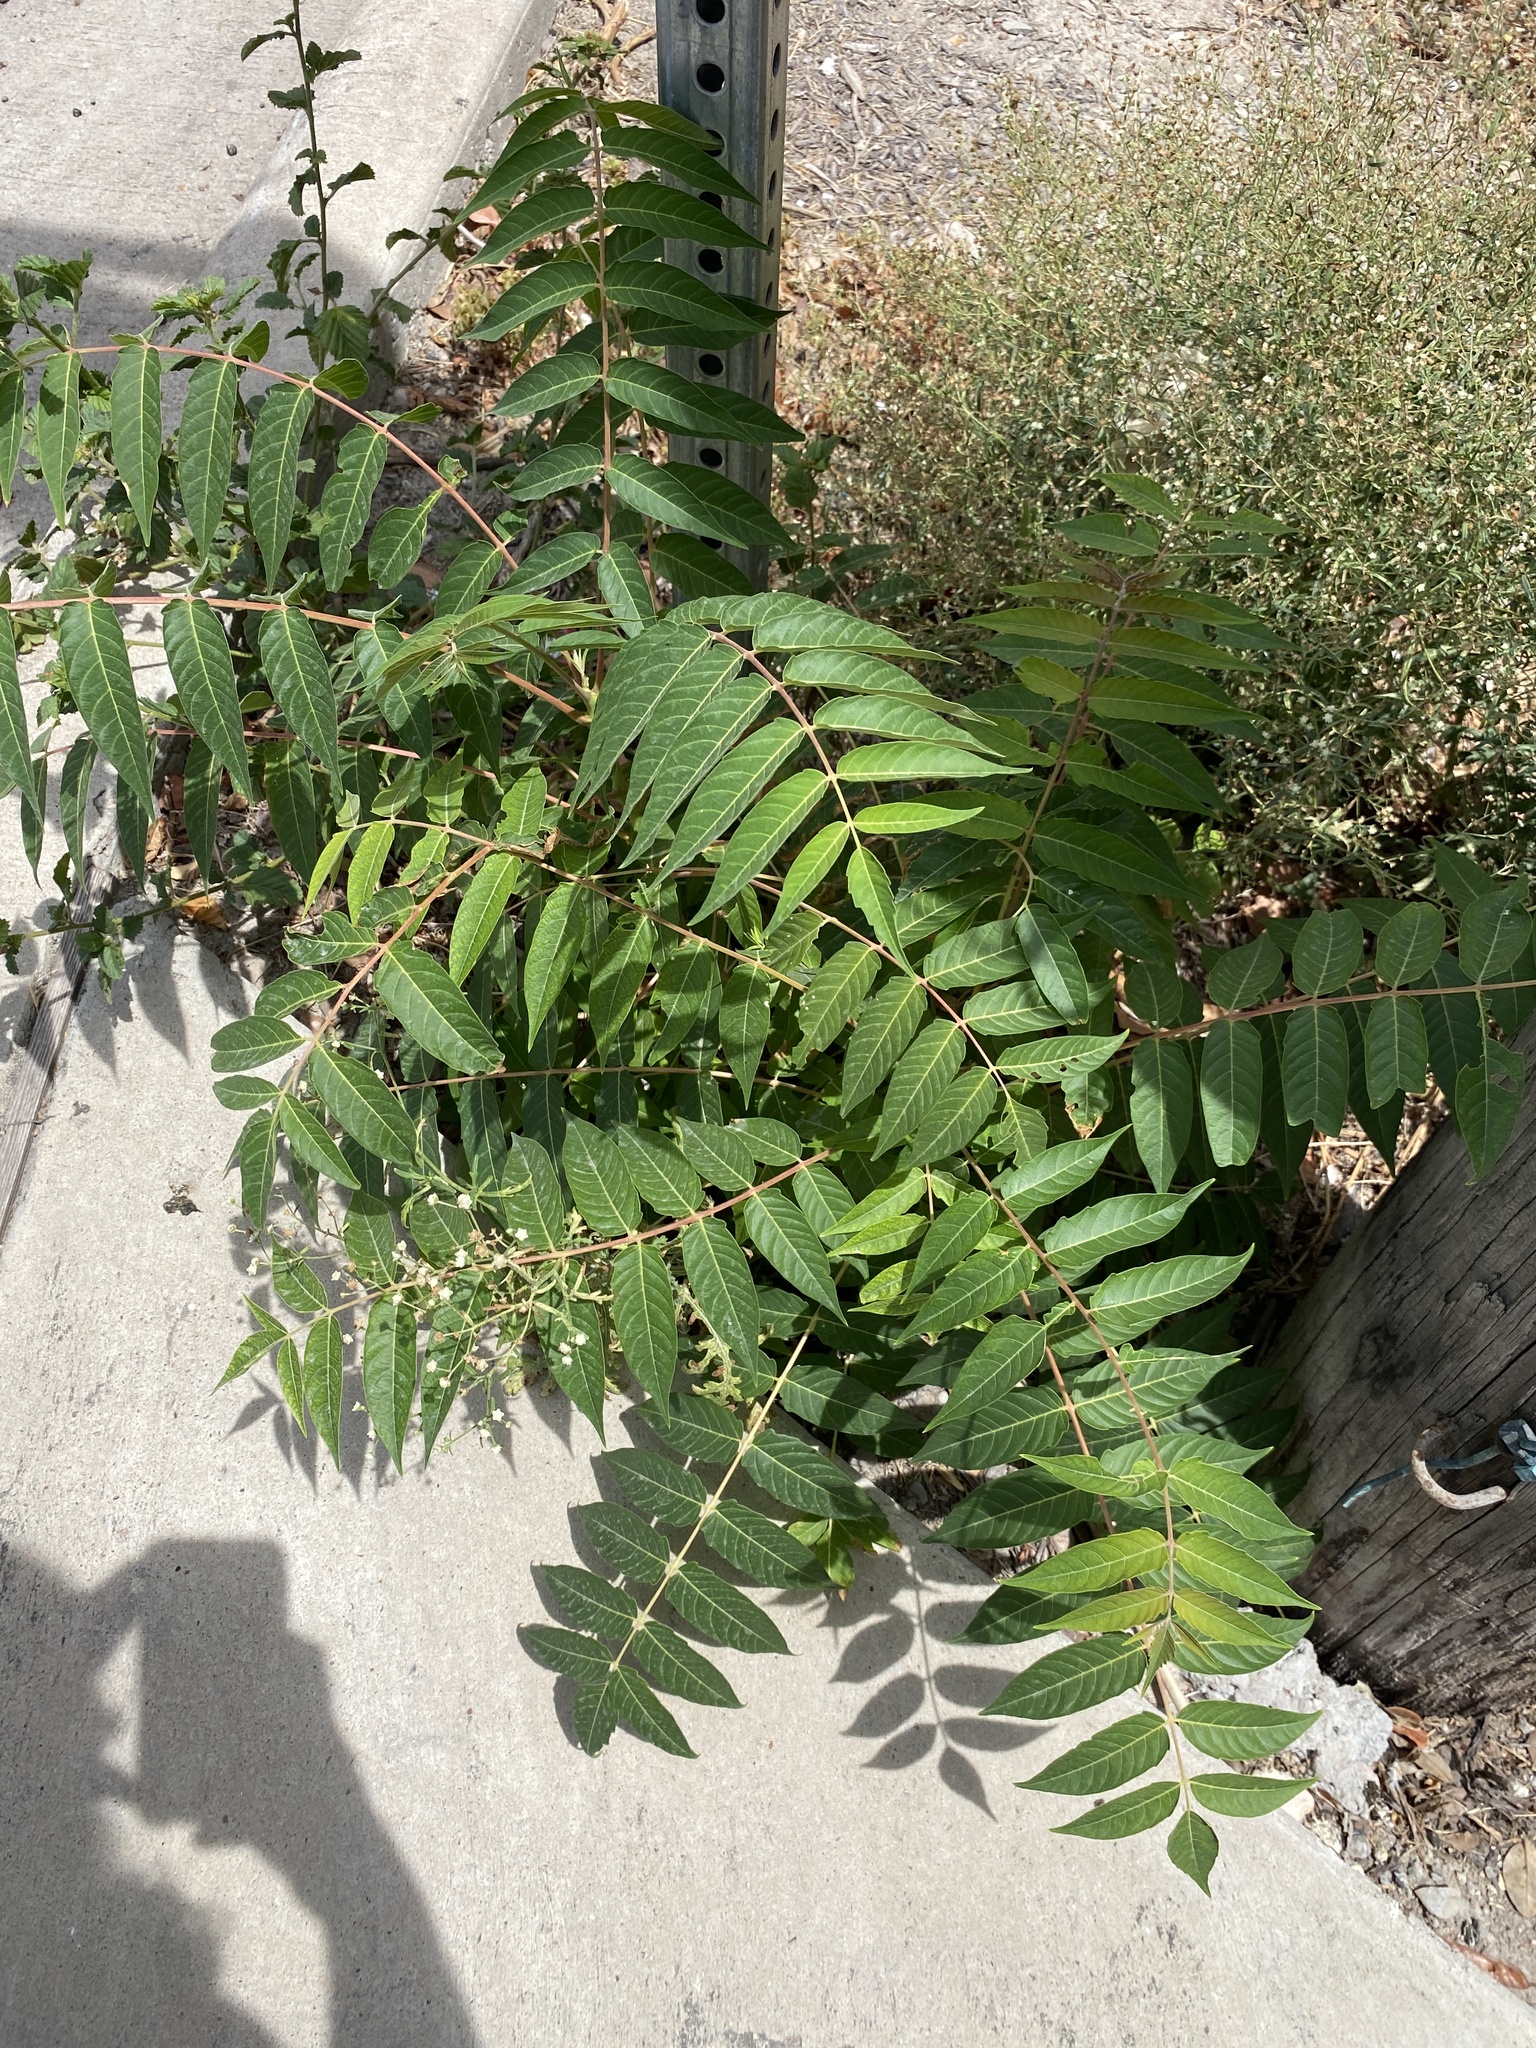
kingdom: Plantae
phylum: Tracheophyta
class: Magnoliopsida
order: Sapindales
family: Simaroubaceae
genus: Ailanthus
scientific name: Ailanthus altissima
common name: Tree-of-heaven
